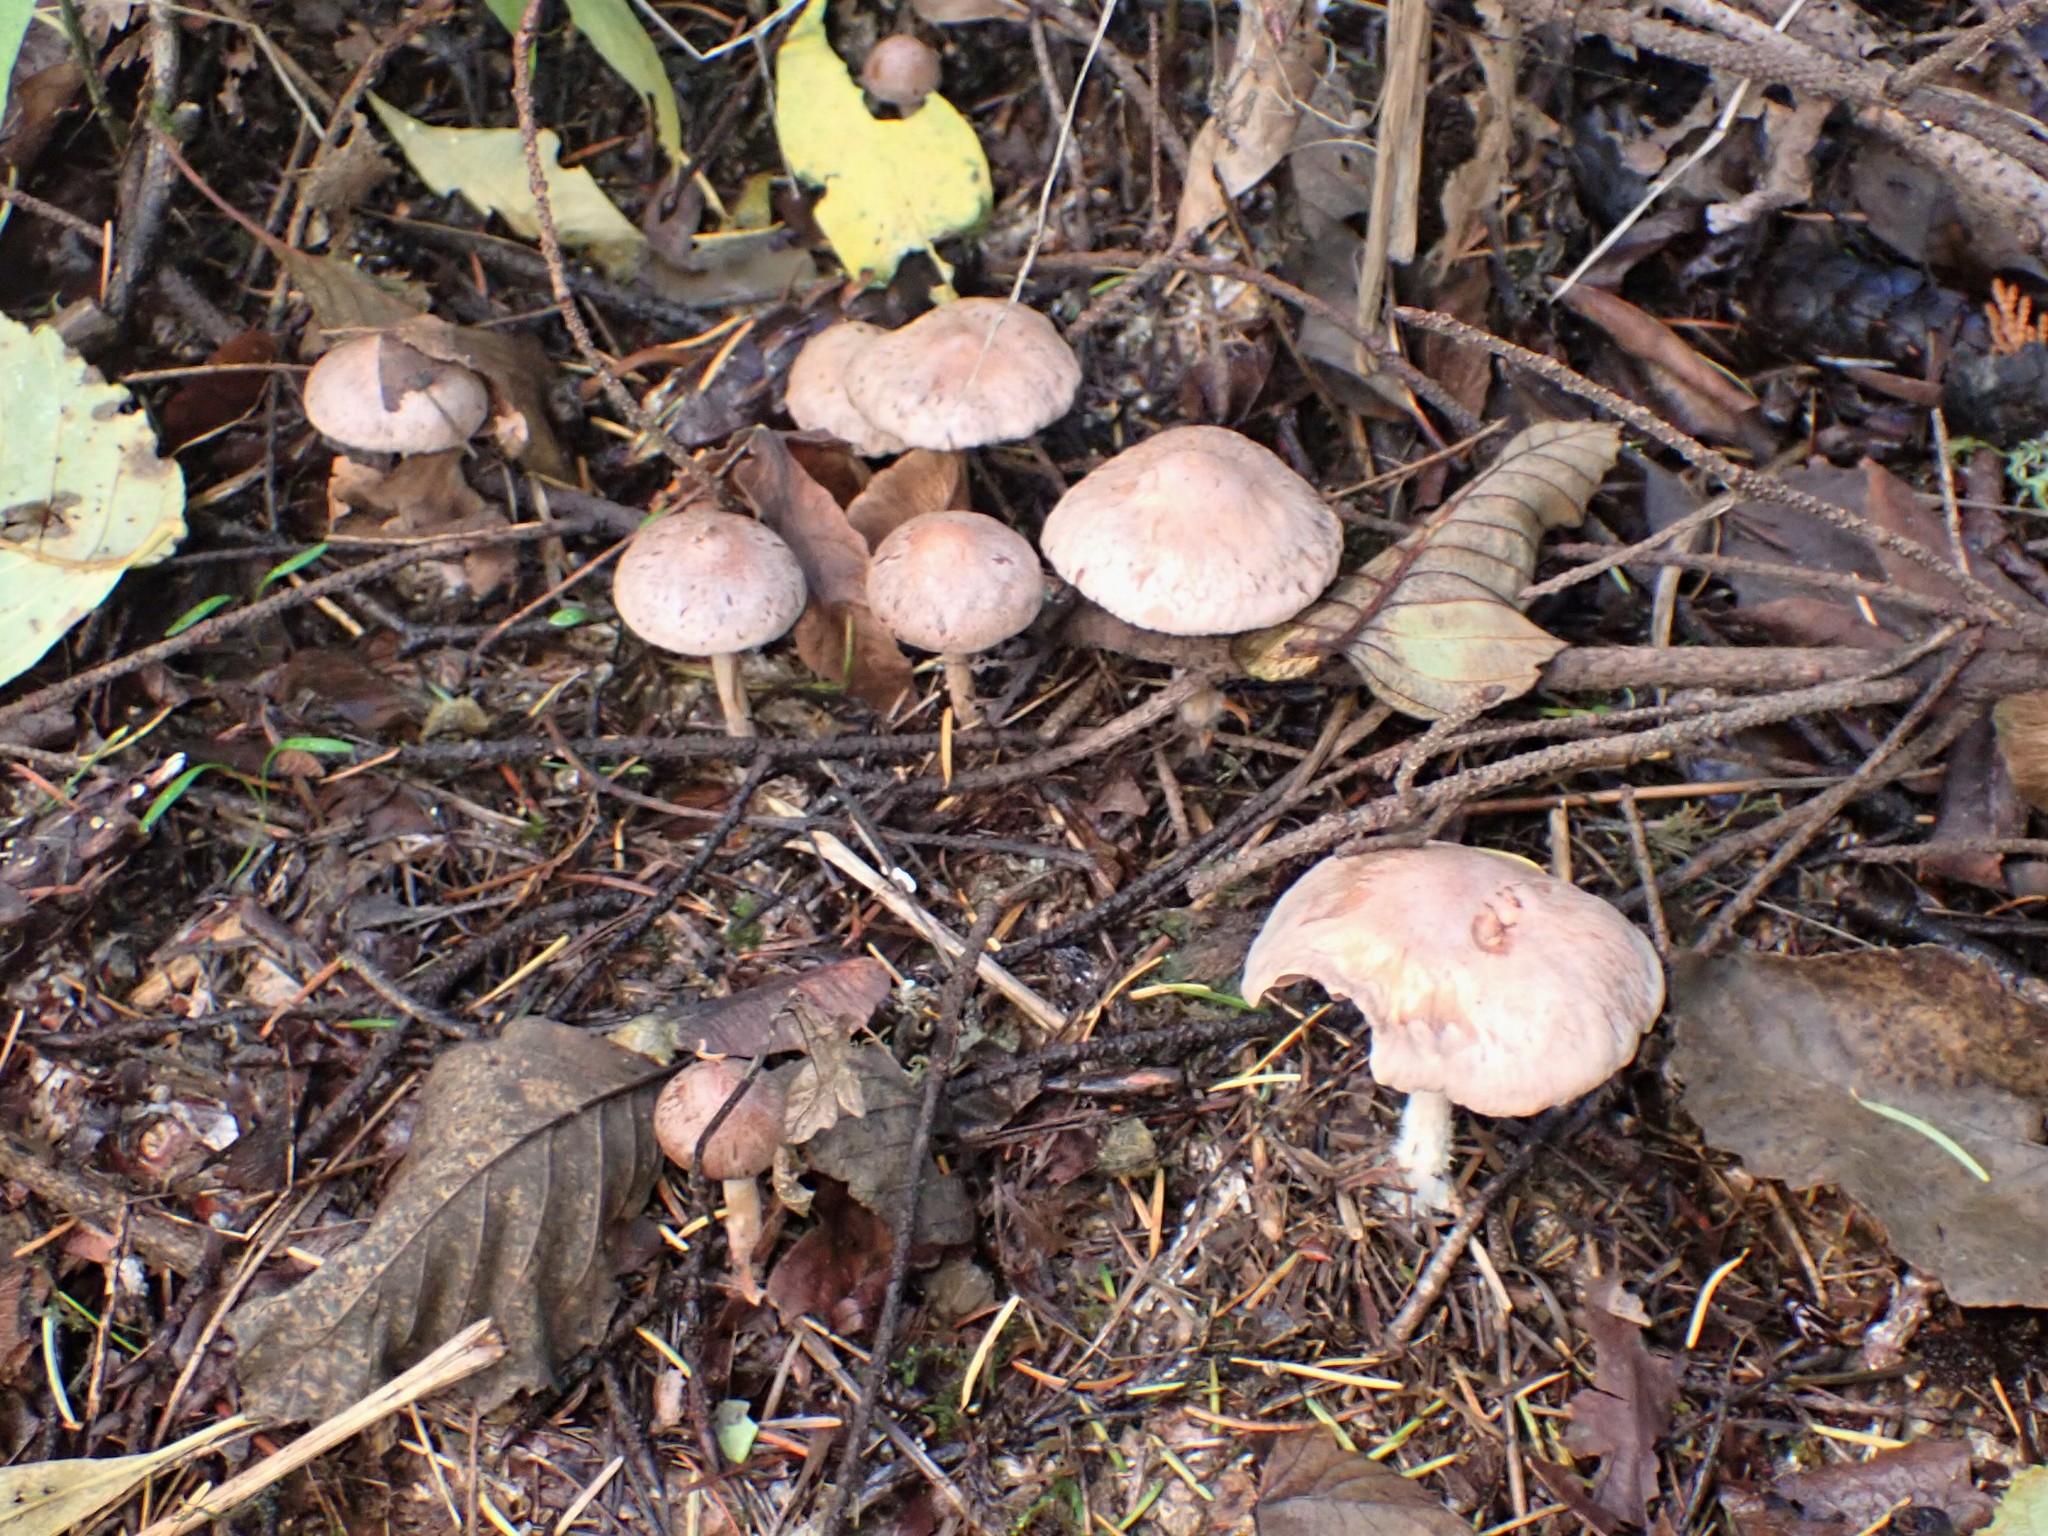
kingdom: Fungi
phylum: Basidiomycota
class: Agaricomycetes
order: Agaricales
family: Omphalotaceae
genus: Collybiopsis
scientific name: Collybiopsis peronata
